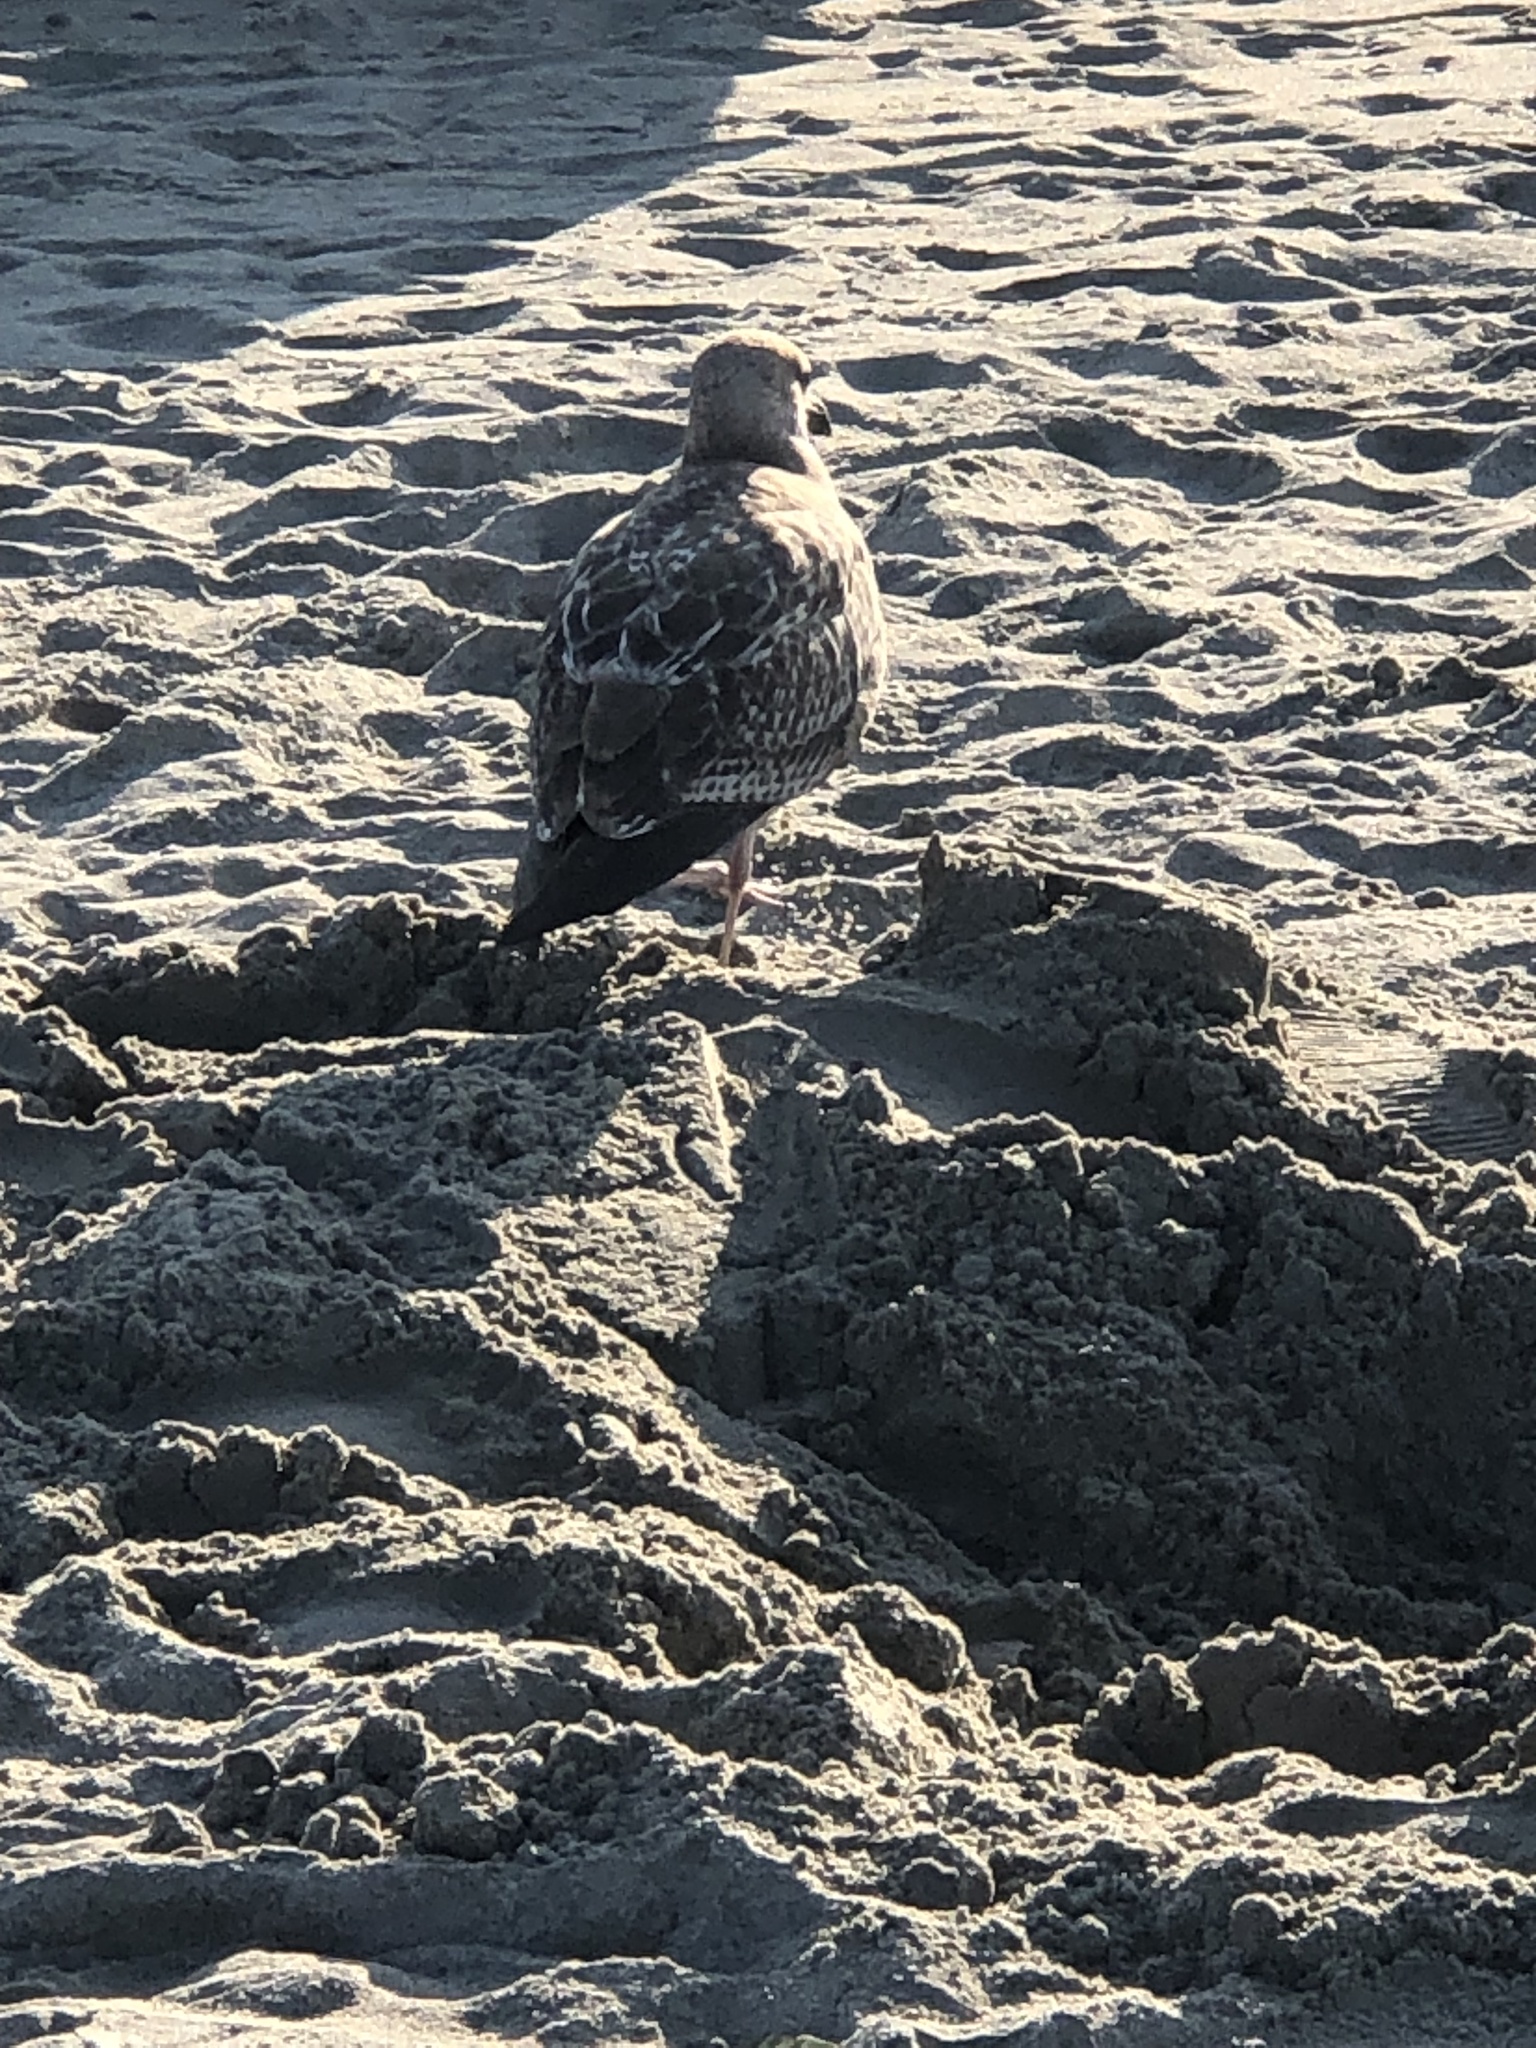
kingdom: Animalia
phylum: Chordata
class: Aves
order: Charadriiformes
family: Laridae
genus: Larus
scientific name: Larus argentatus
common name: Herring gull
